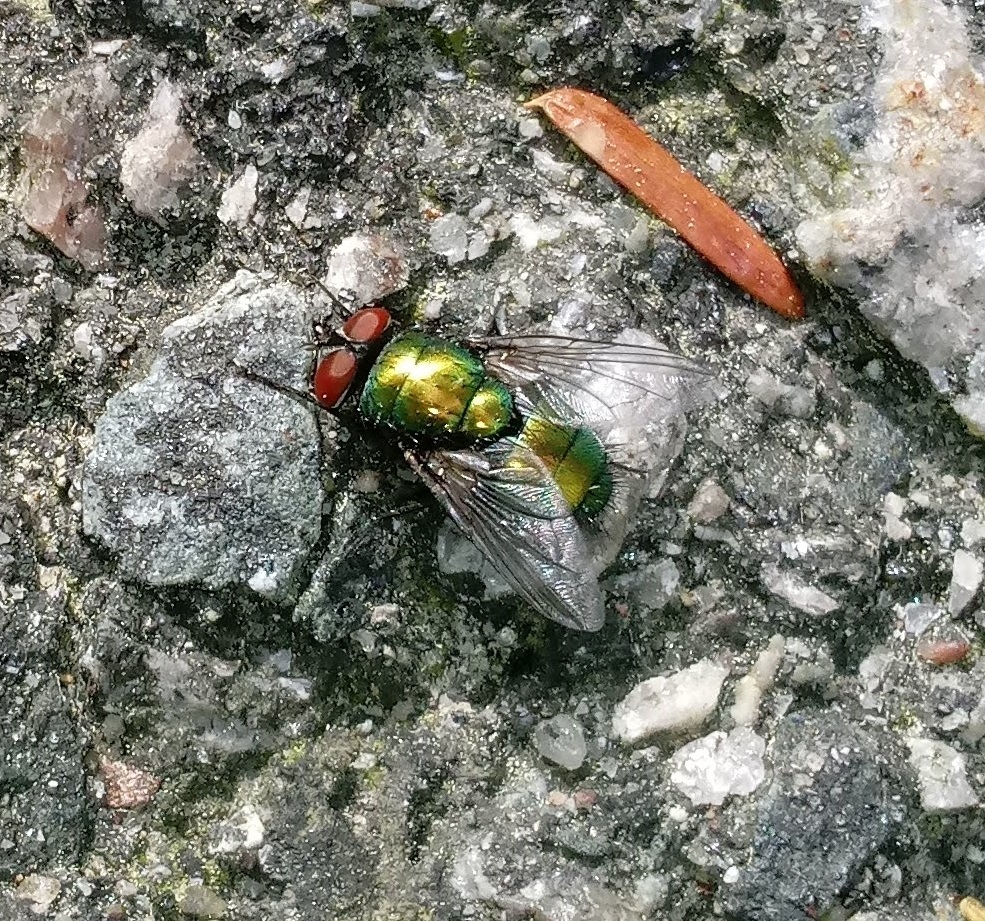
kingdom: Animalia
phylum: Arthropoda
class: Insecta
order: Diptera
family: Calliphoridae
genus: Lucilia
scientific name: Lucilia sericata
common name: Blow fly
